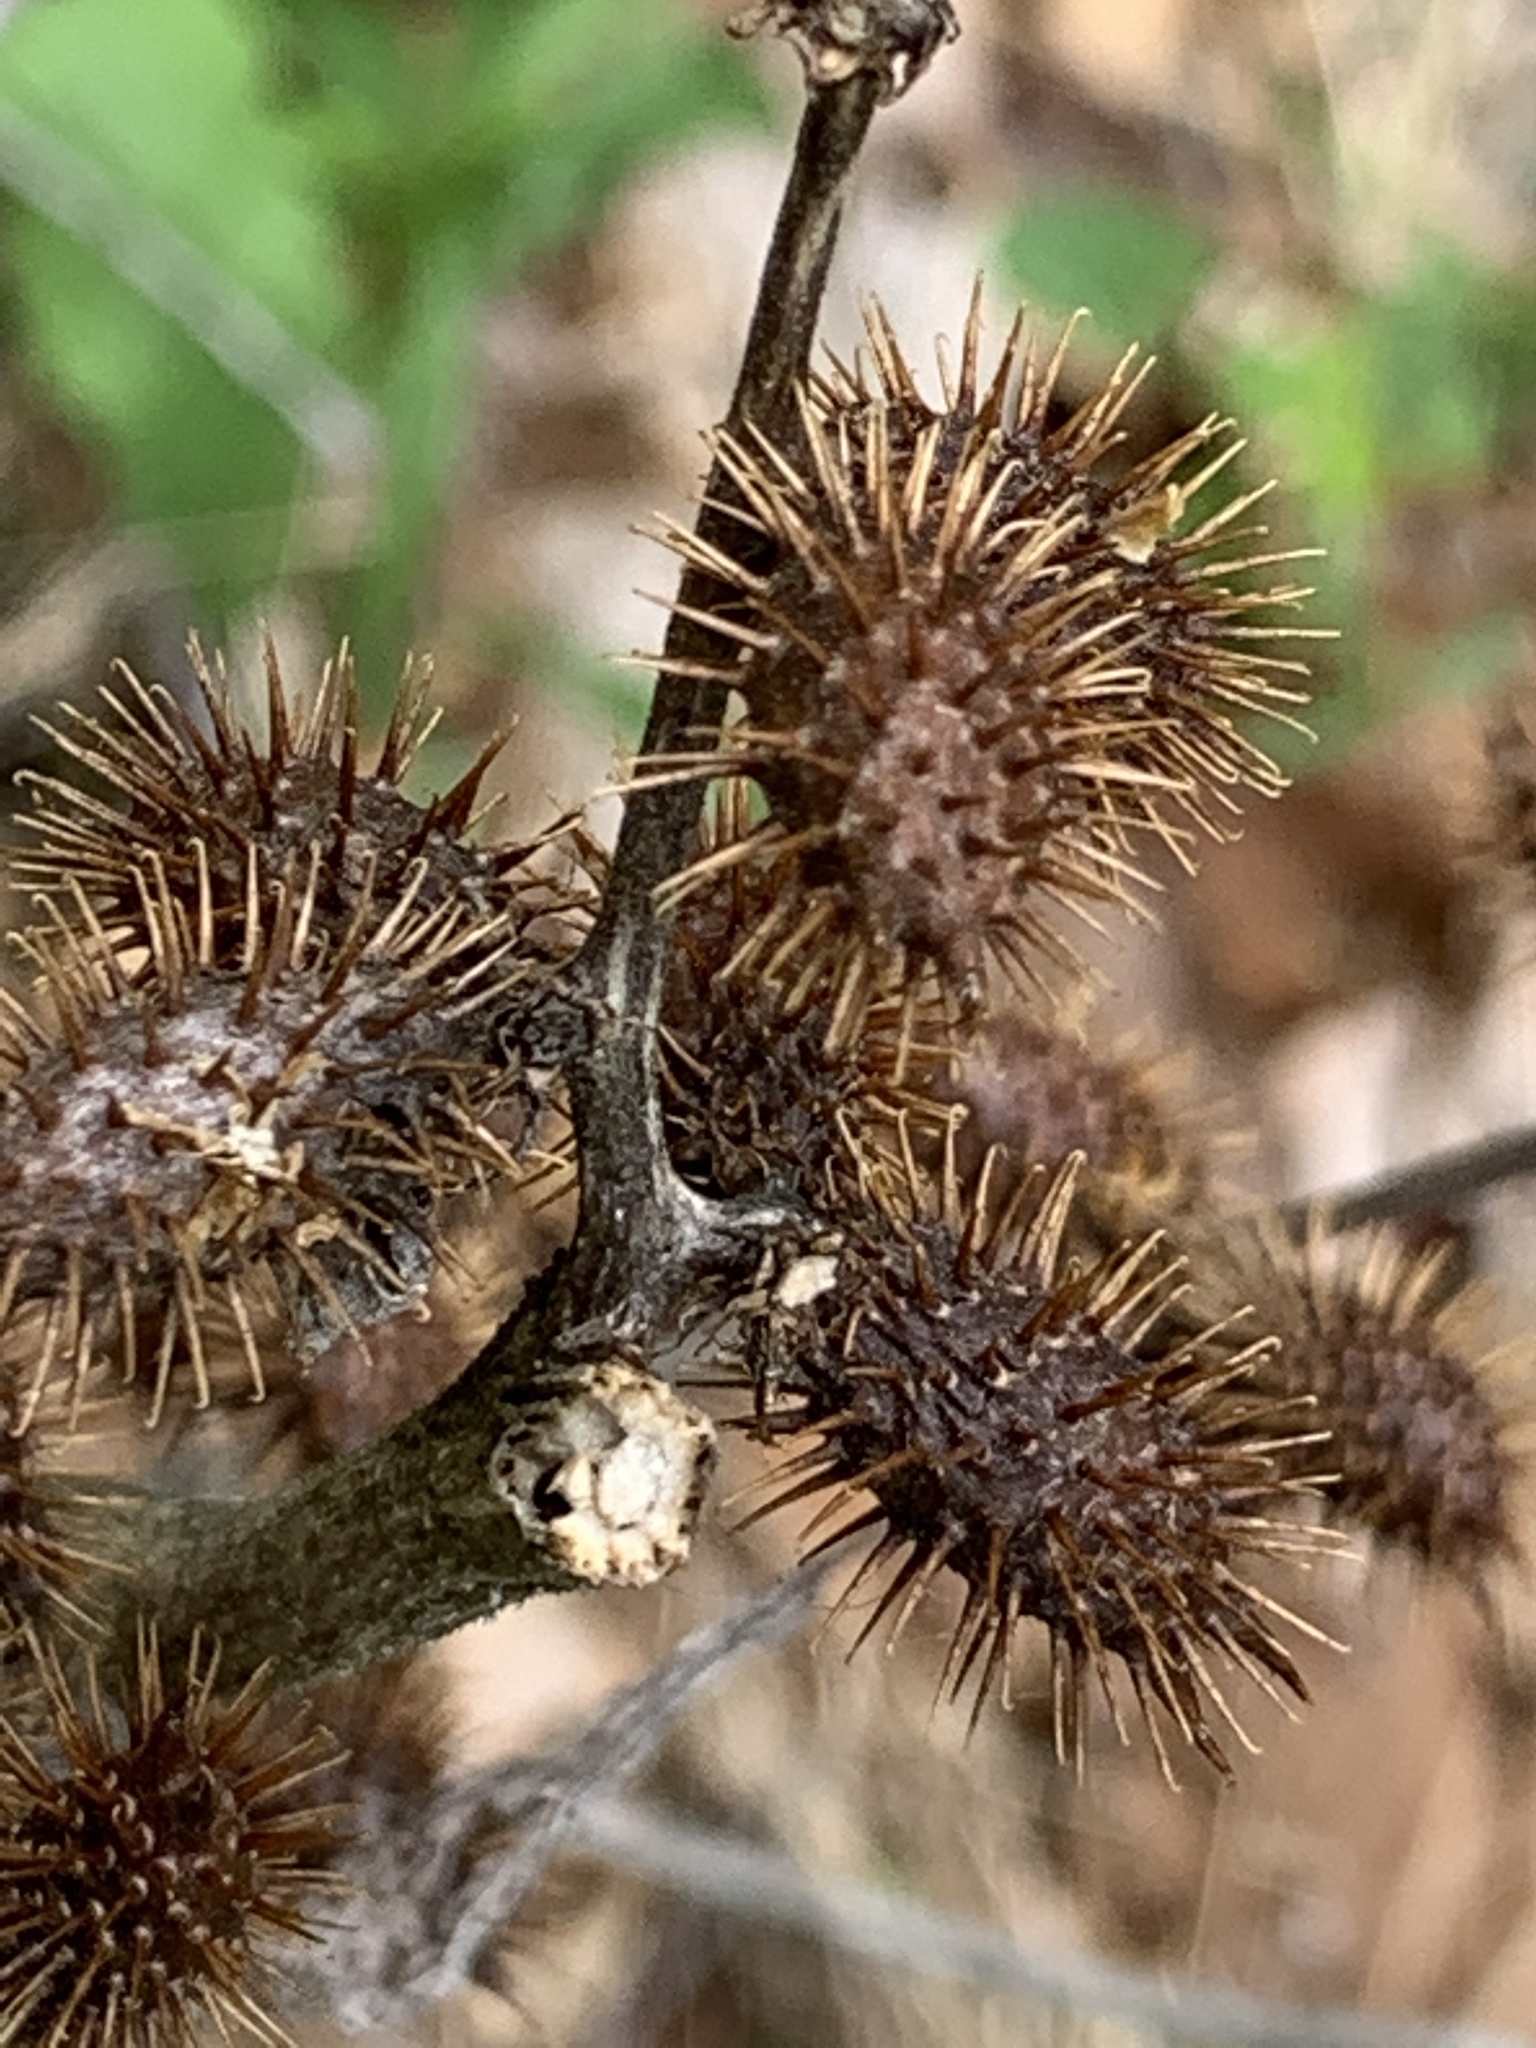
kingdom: Plantae
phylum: Tracheophyta
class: Magnoliopsida
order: Asterales
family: Asteraceae
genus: Xanthium
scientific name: Xanthium strumarium
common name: Rough cocklebur
